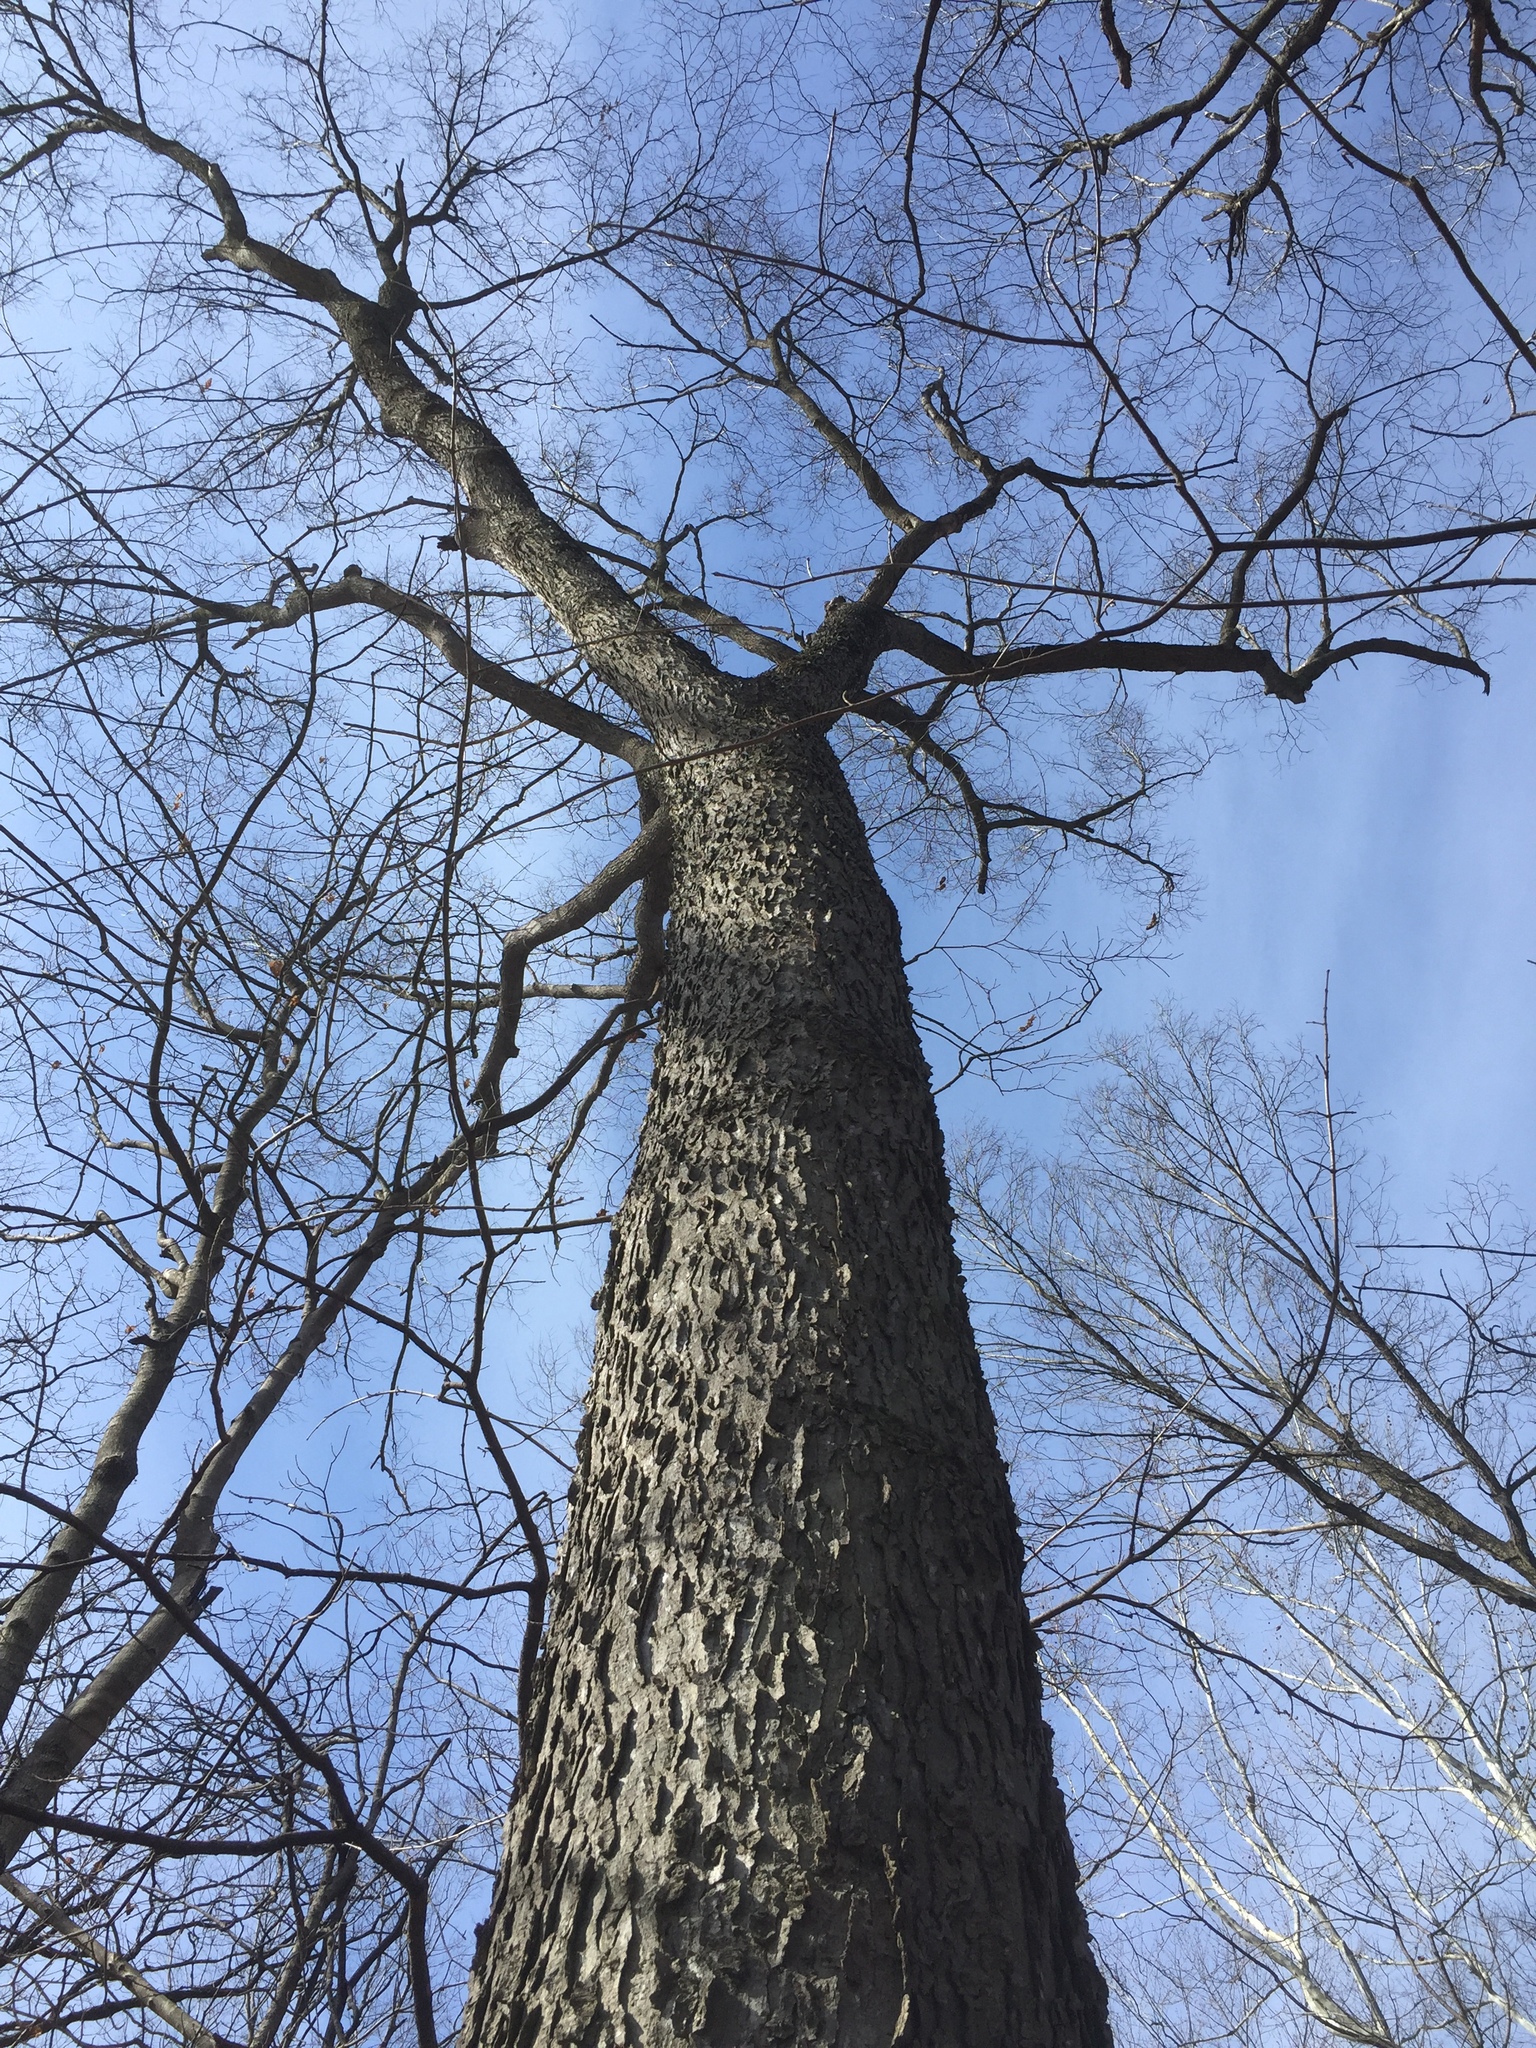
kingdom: Plantae
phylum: Tracheophyta
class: Magnoliopsida
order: Rosales
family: Cannabaceae
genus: Celtis
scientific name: Celtis occidentalis
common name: Common hackberry
